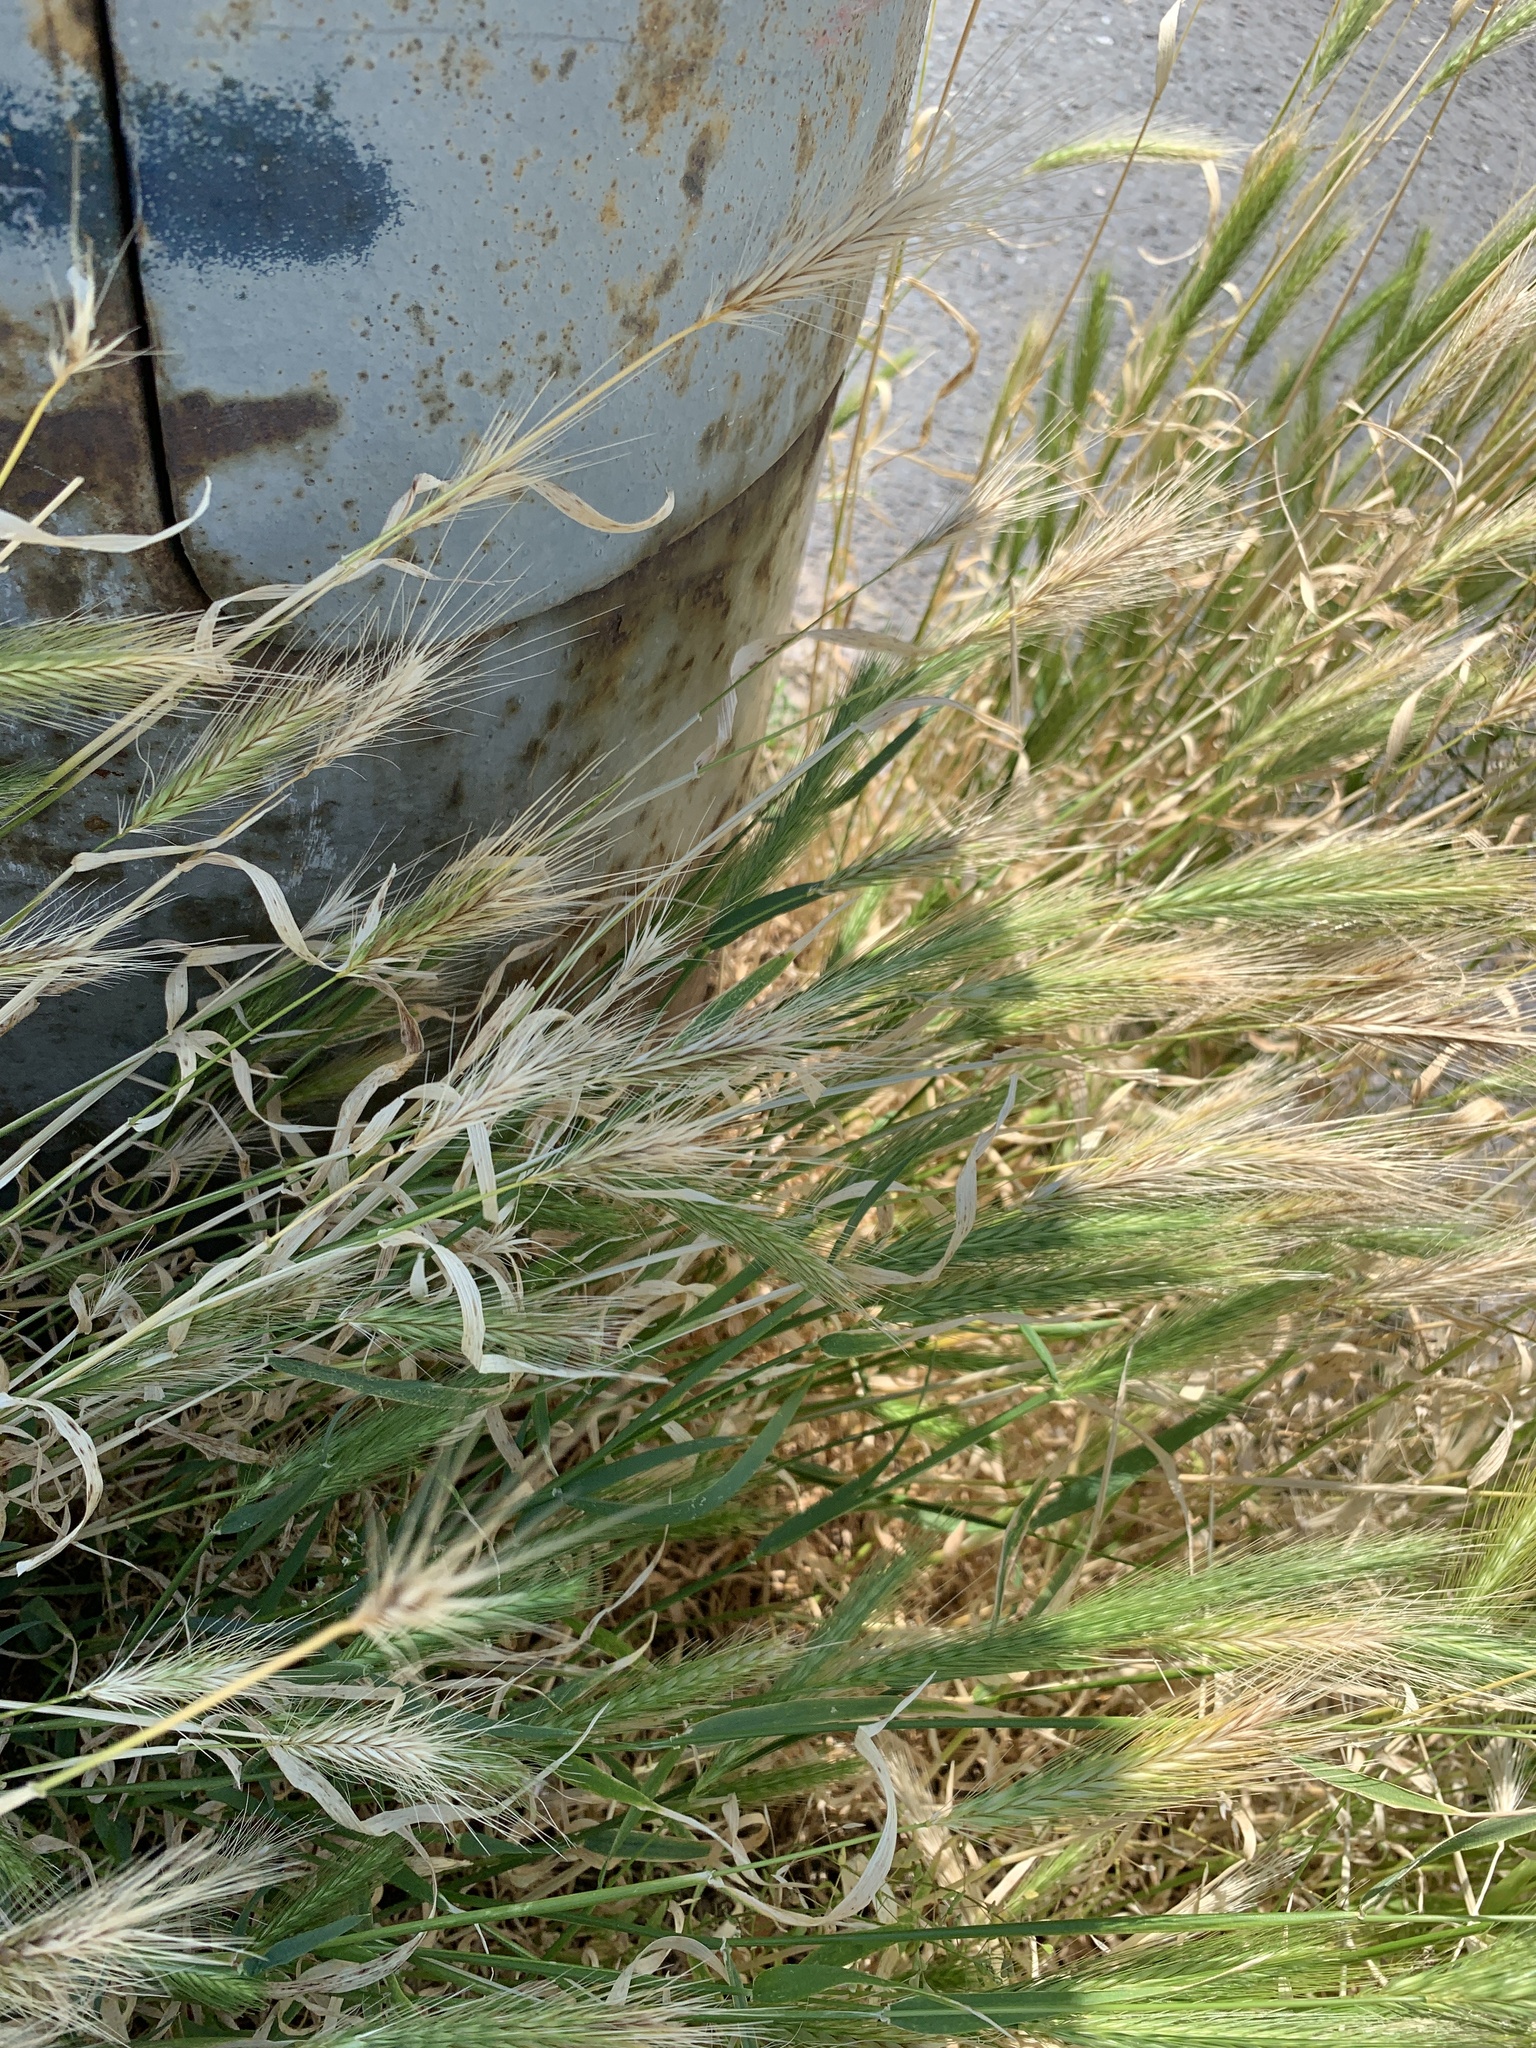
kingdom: Plantae
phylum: Tracheophyta
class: Liliopsida
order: Poales
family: Poaceae
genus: Hordeum
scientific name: Hordeum murinum
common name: Wall barley
